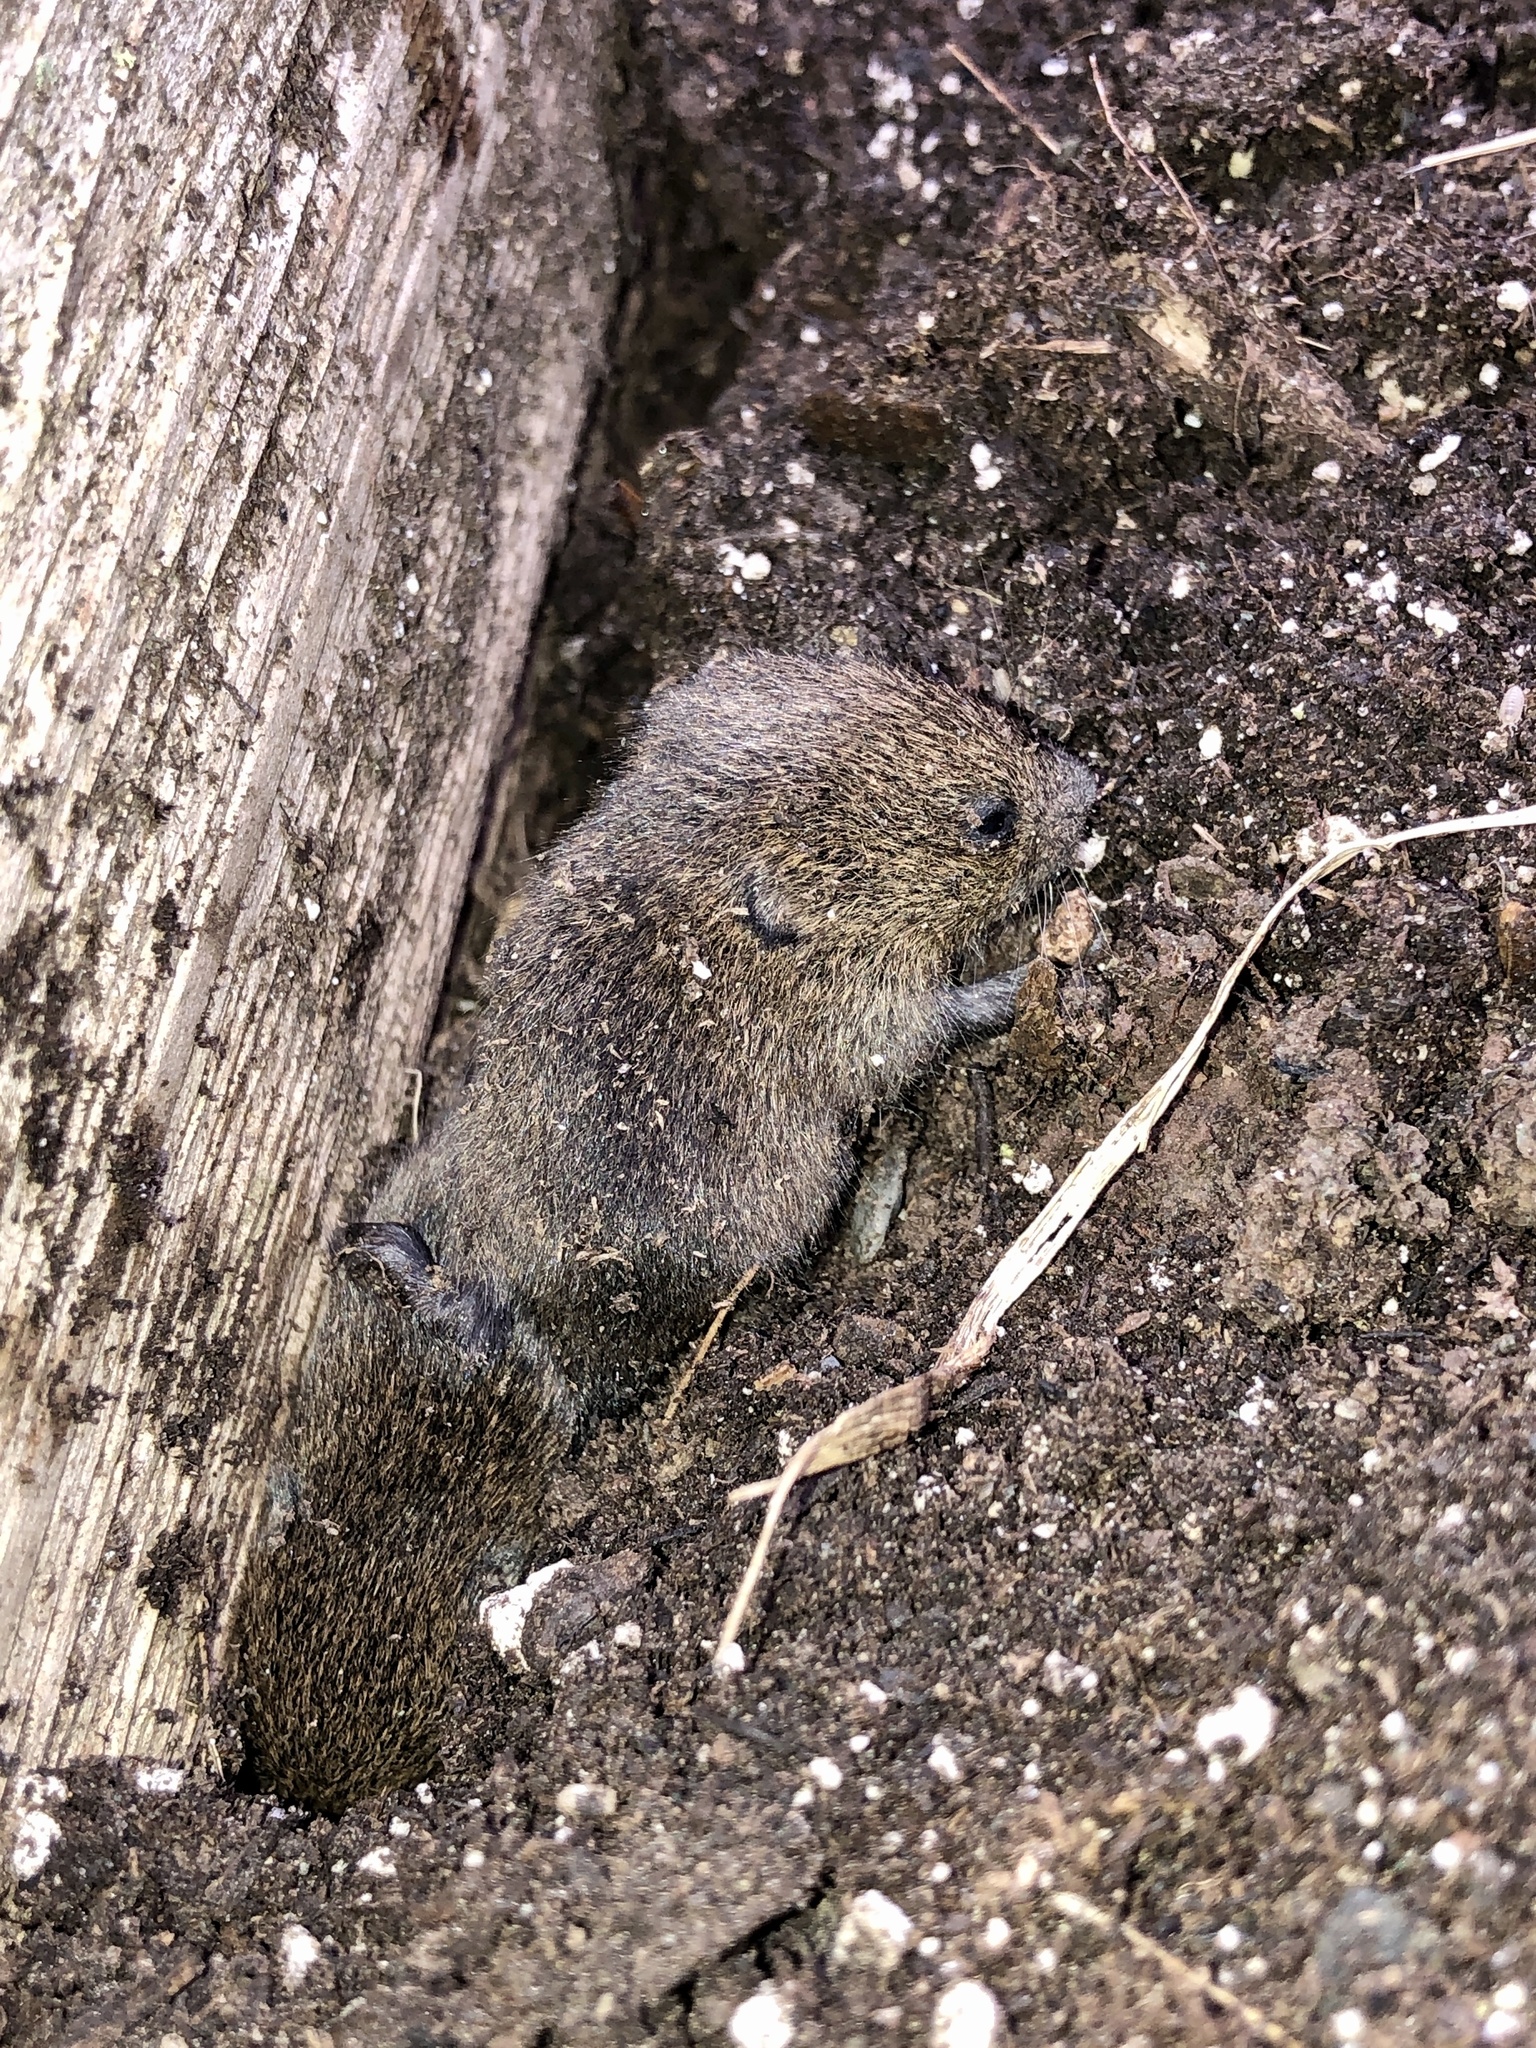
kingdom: Animalia
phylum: Chordata
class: Mammalia
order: Rodentia
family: Cricetidae
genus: Microtus
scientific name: Microtus pennsylvanicus
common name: Meadow vole
